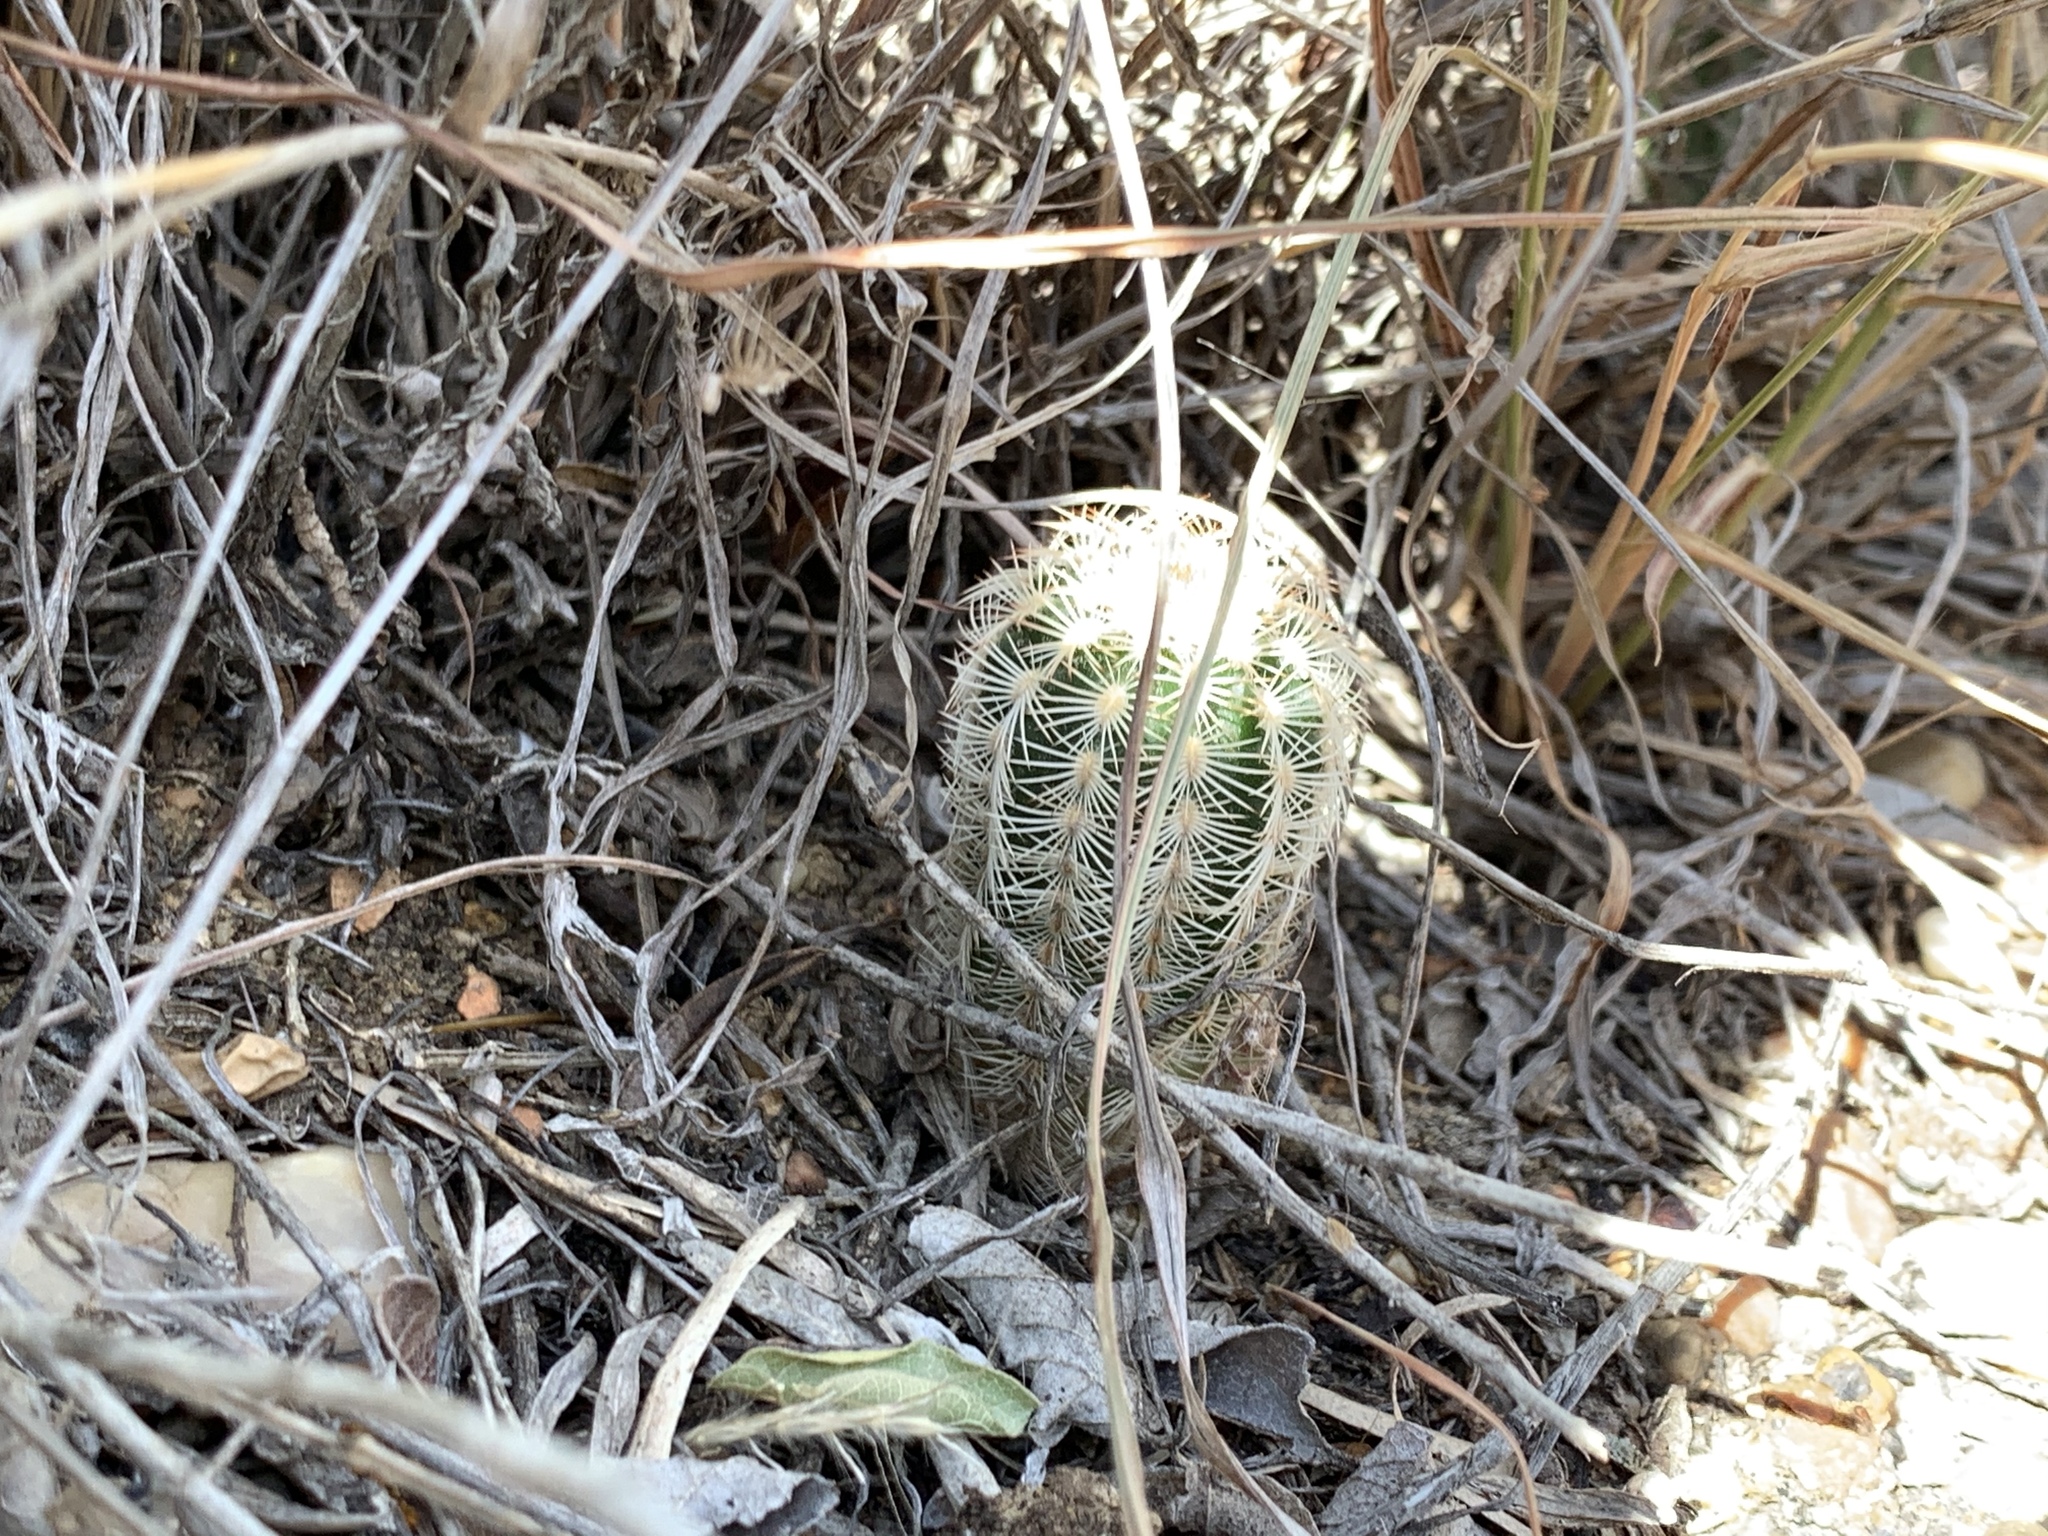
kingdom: Plantae
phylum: Tracheophyta
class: Magnoliopsida
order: Caryophyllales
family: Cactaceae
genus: Echinocereus
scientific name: Echinocereus reichenbachii
